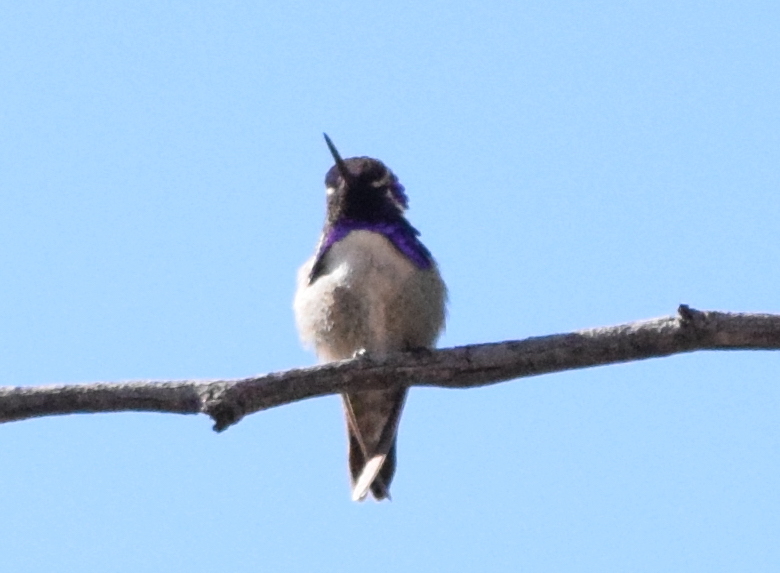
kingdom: Animalia
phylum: Chordata
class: Aves
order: Apodiformes
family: Trochilidae
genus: Calypte
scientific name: Calypte costae
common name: Costa's hummingbird
